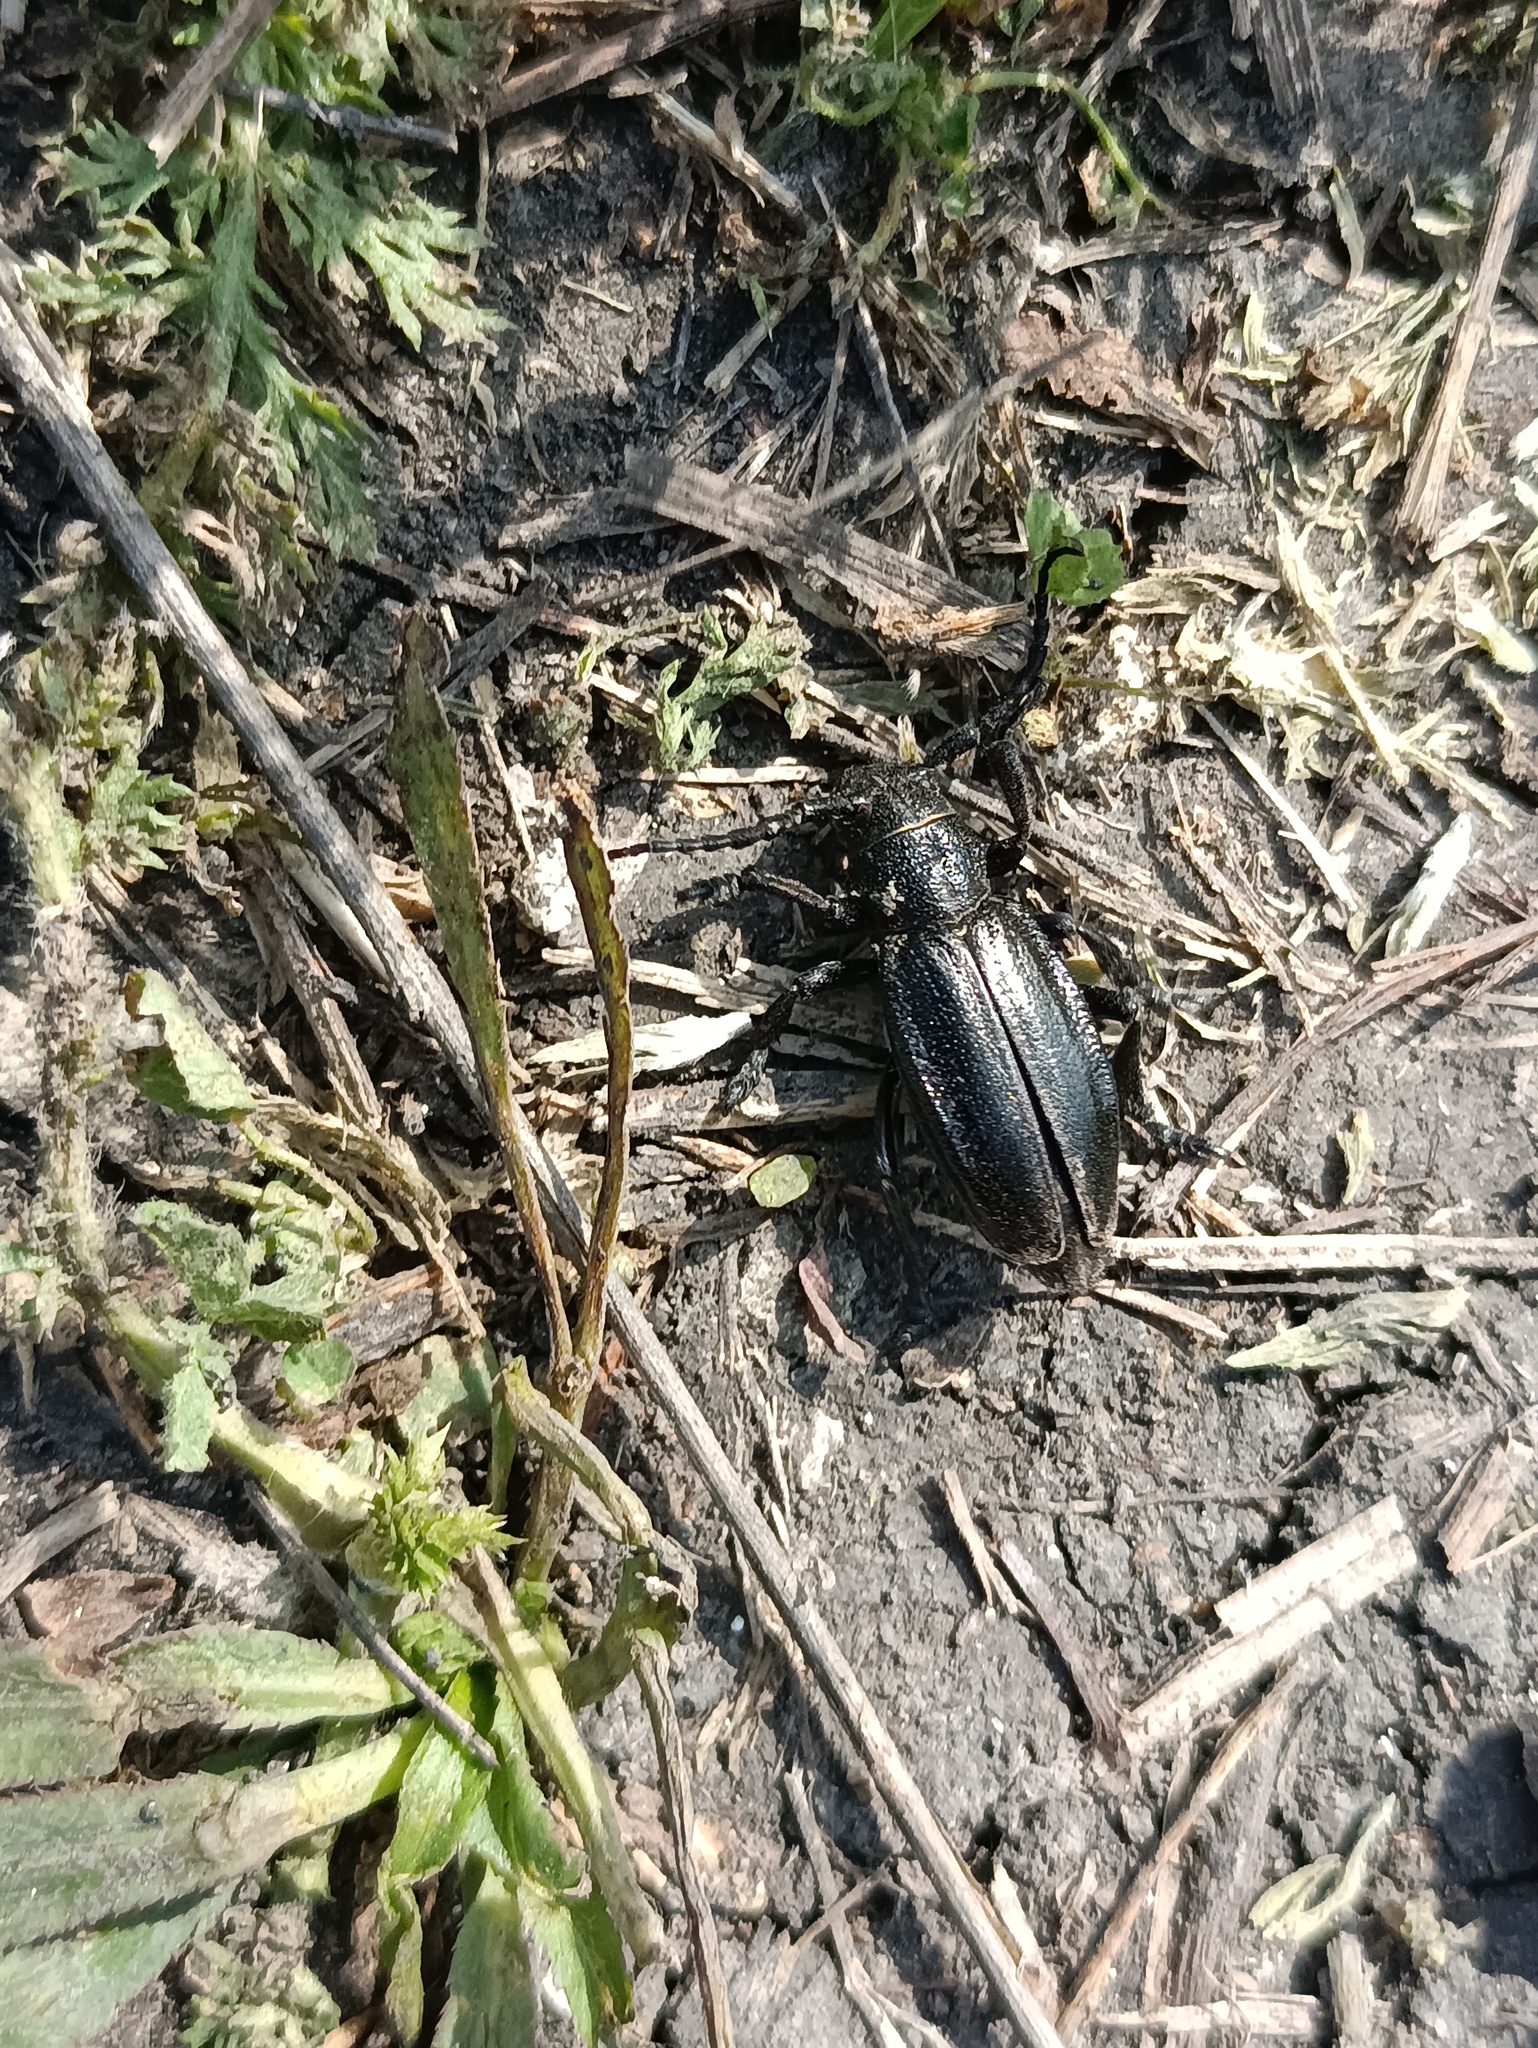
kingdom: Animalia
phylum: Arthropoda
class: Insecta
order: Coleoptera
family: Cerambycidae
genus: Dorcadion
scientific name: Dorcadion carinatum
